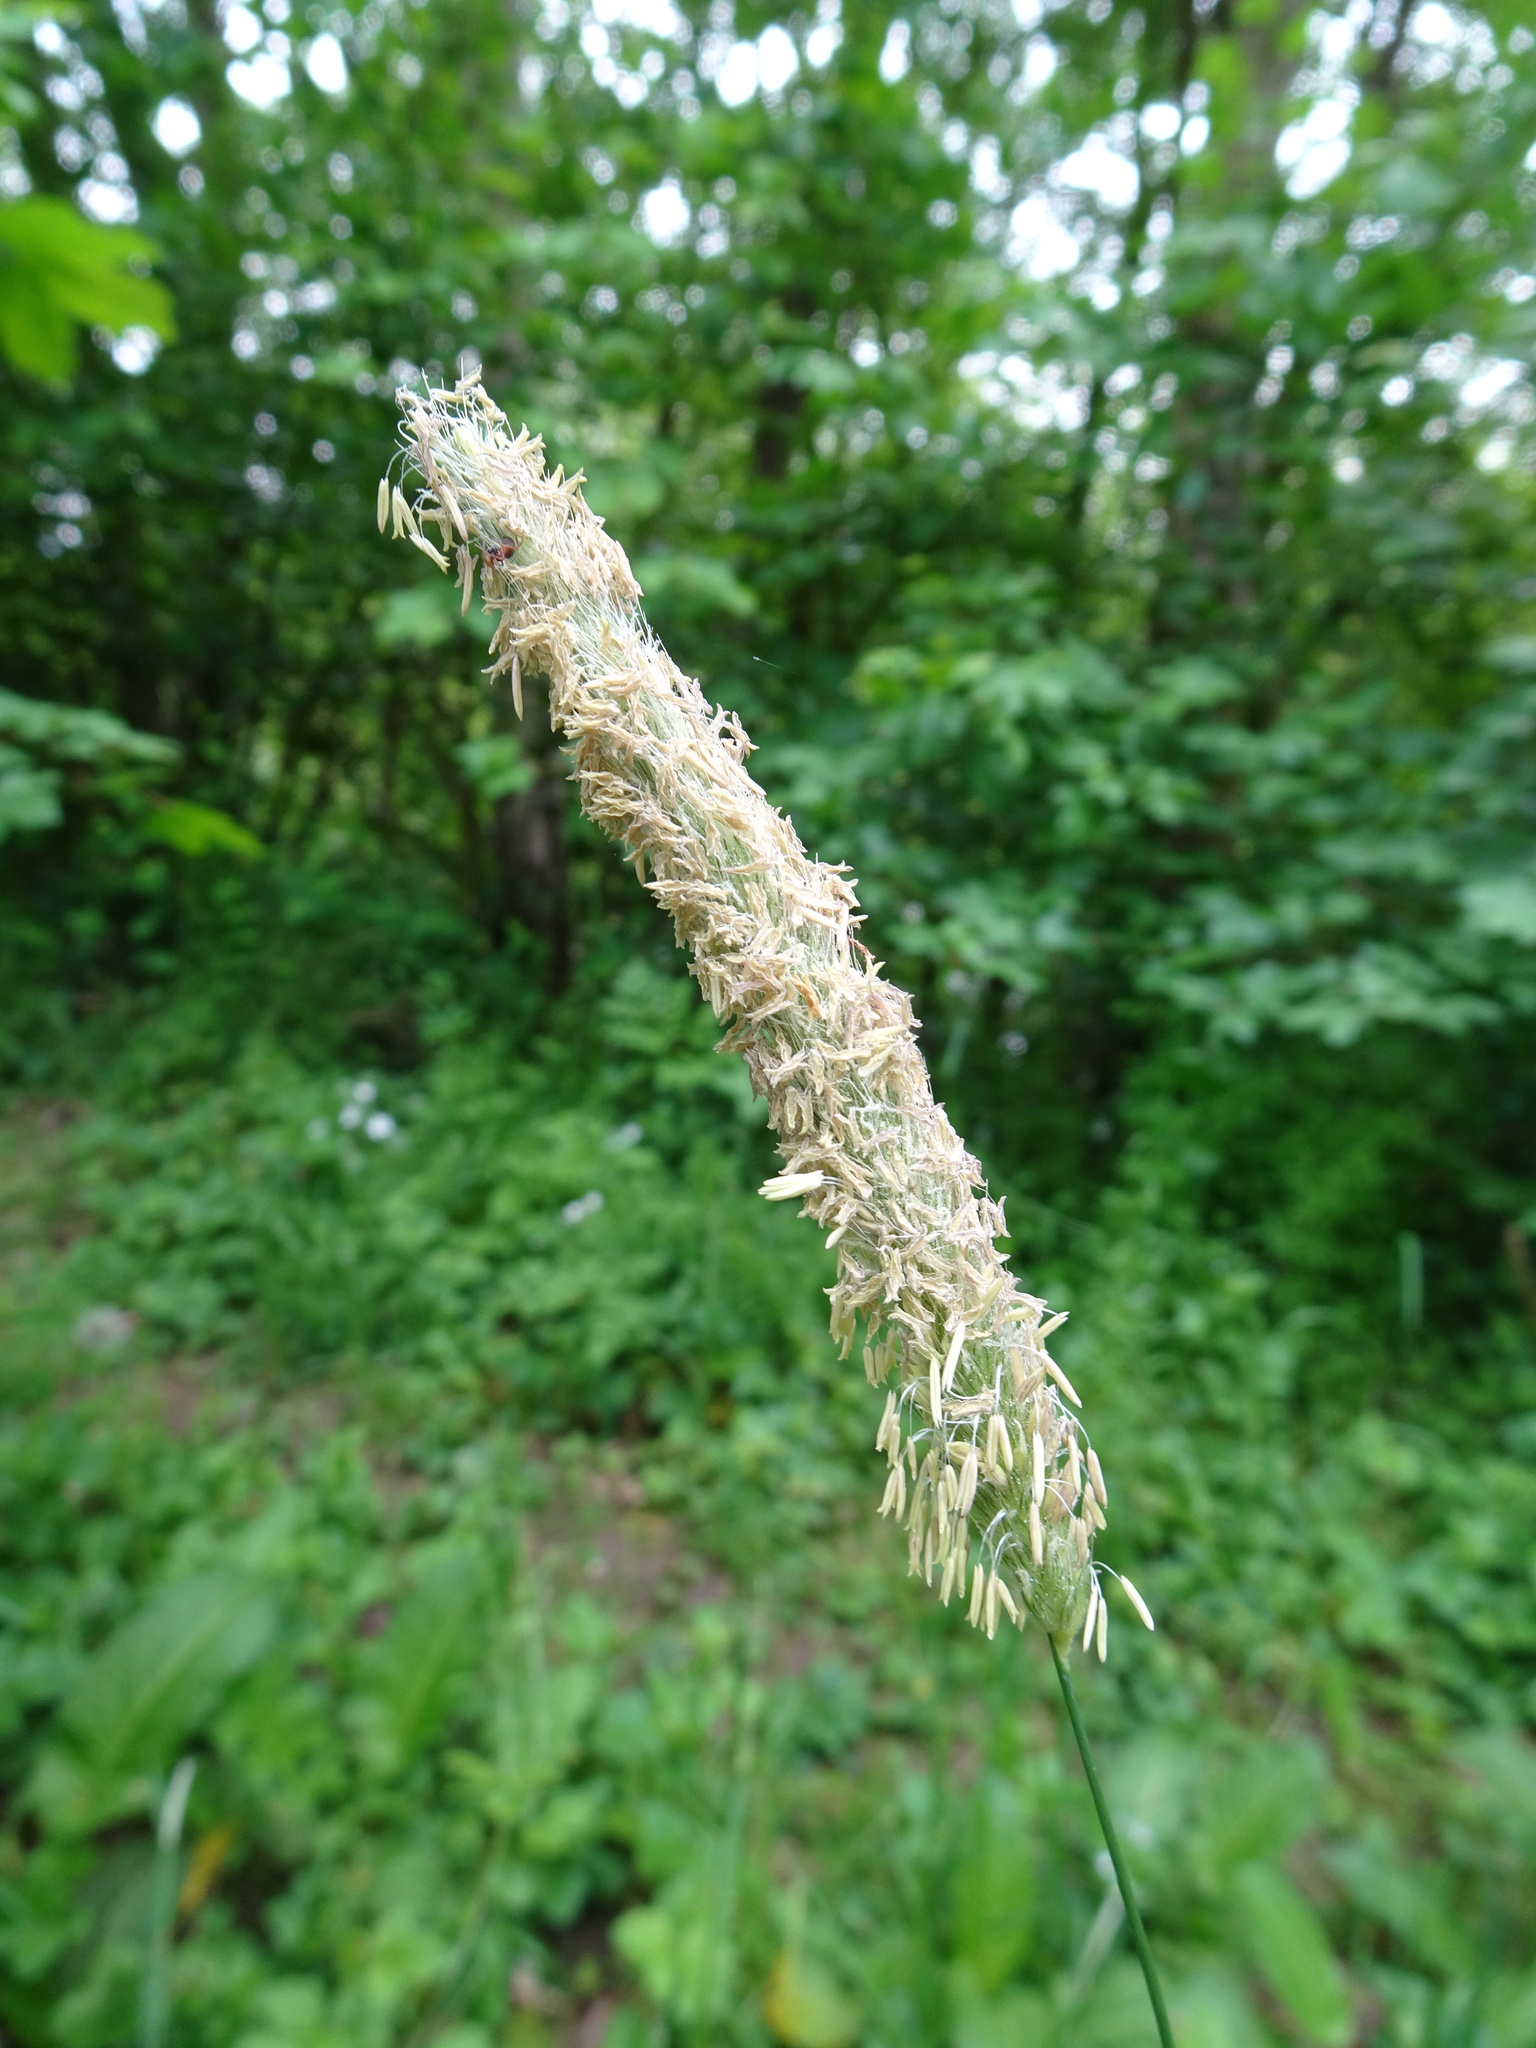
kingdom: Plantae
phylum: Tracheophyta
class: Liliopsida
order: Poales
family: Poaceae
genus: Alopecurus
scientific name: Alopecurus pratensis
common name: Meadow foxtail
